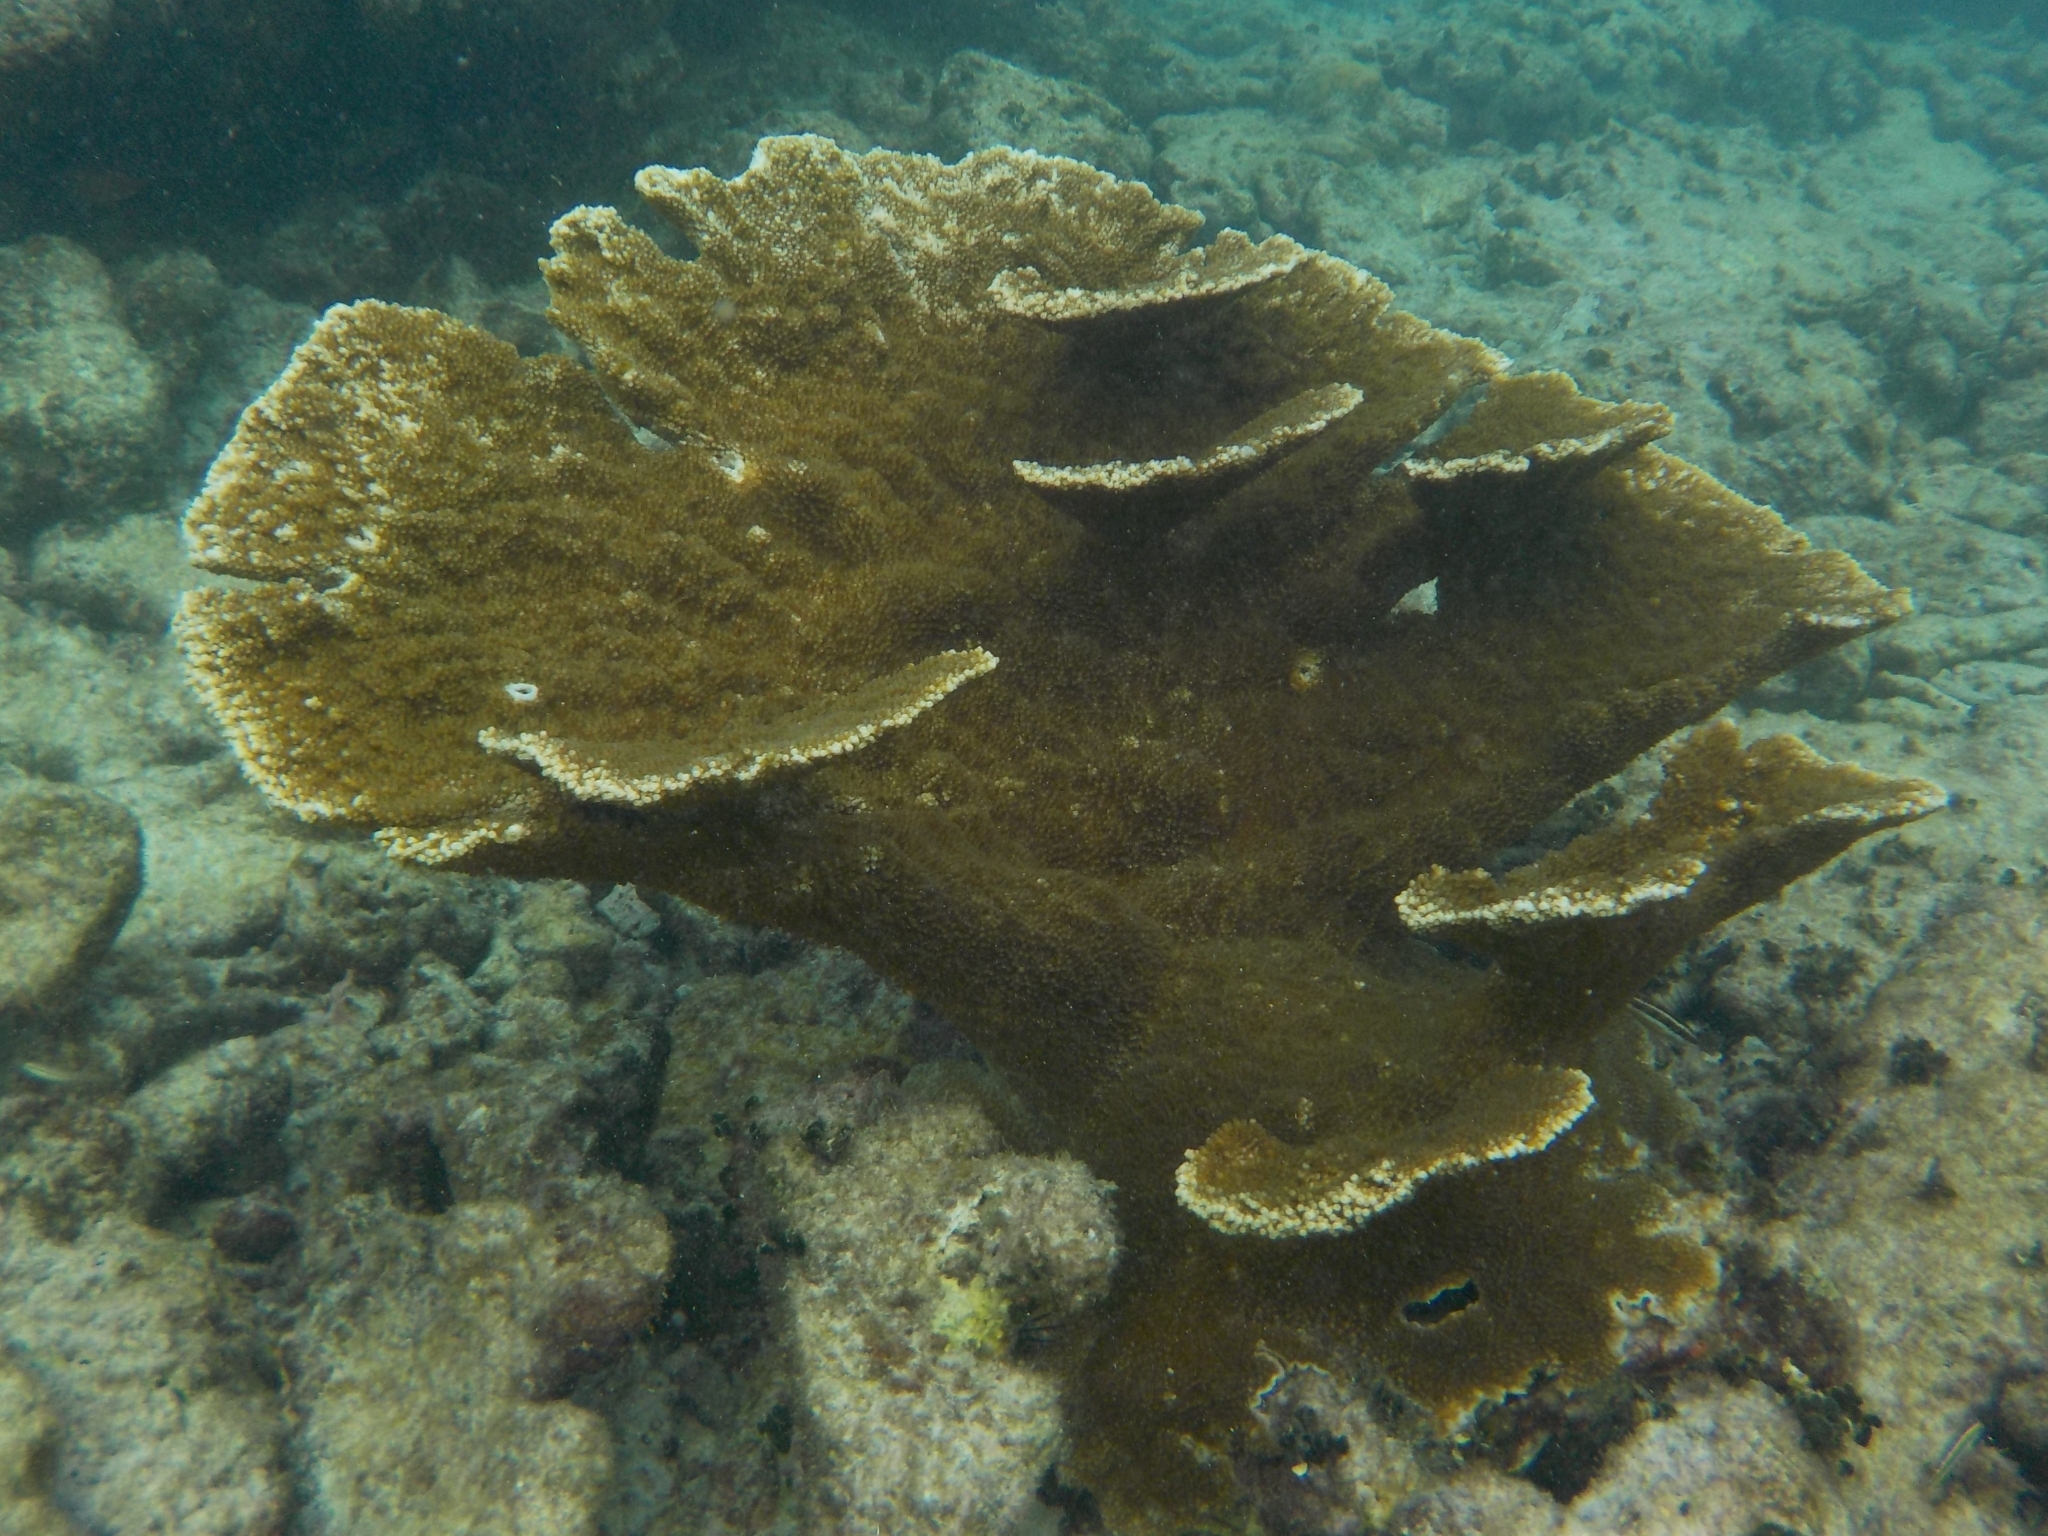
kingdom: Animalia
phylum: Cnidaria
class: Anthozoa
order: Scleractinia
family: Acroporidae
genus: Acropora
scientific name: Acropora palmata
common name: Elkhorn coral
